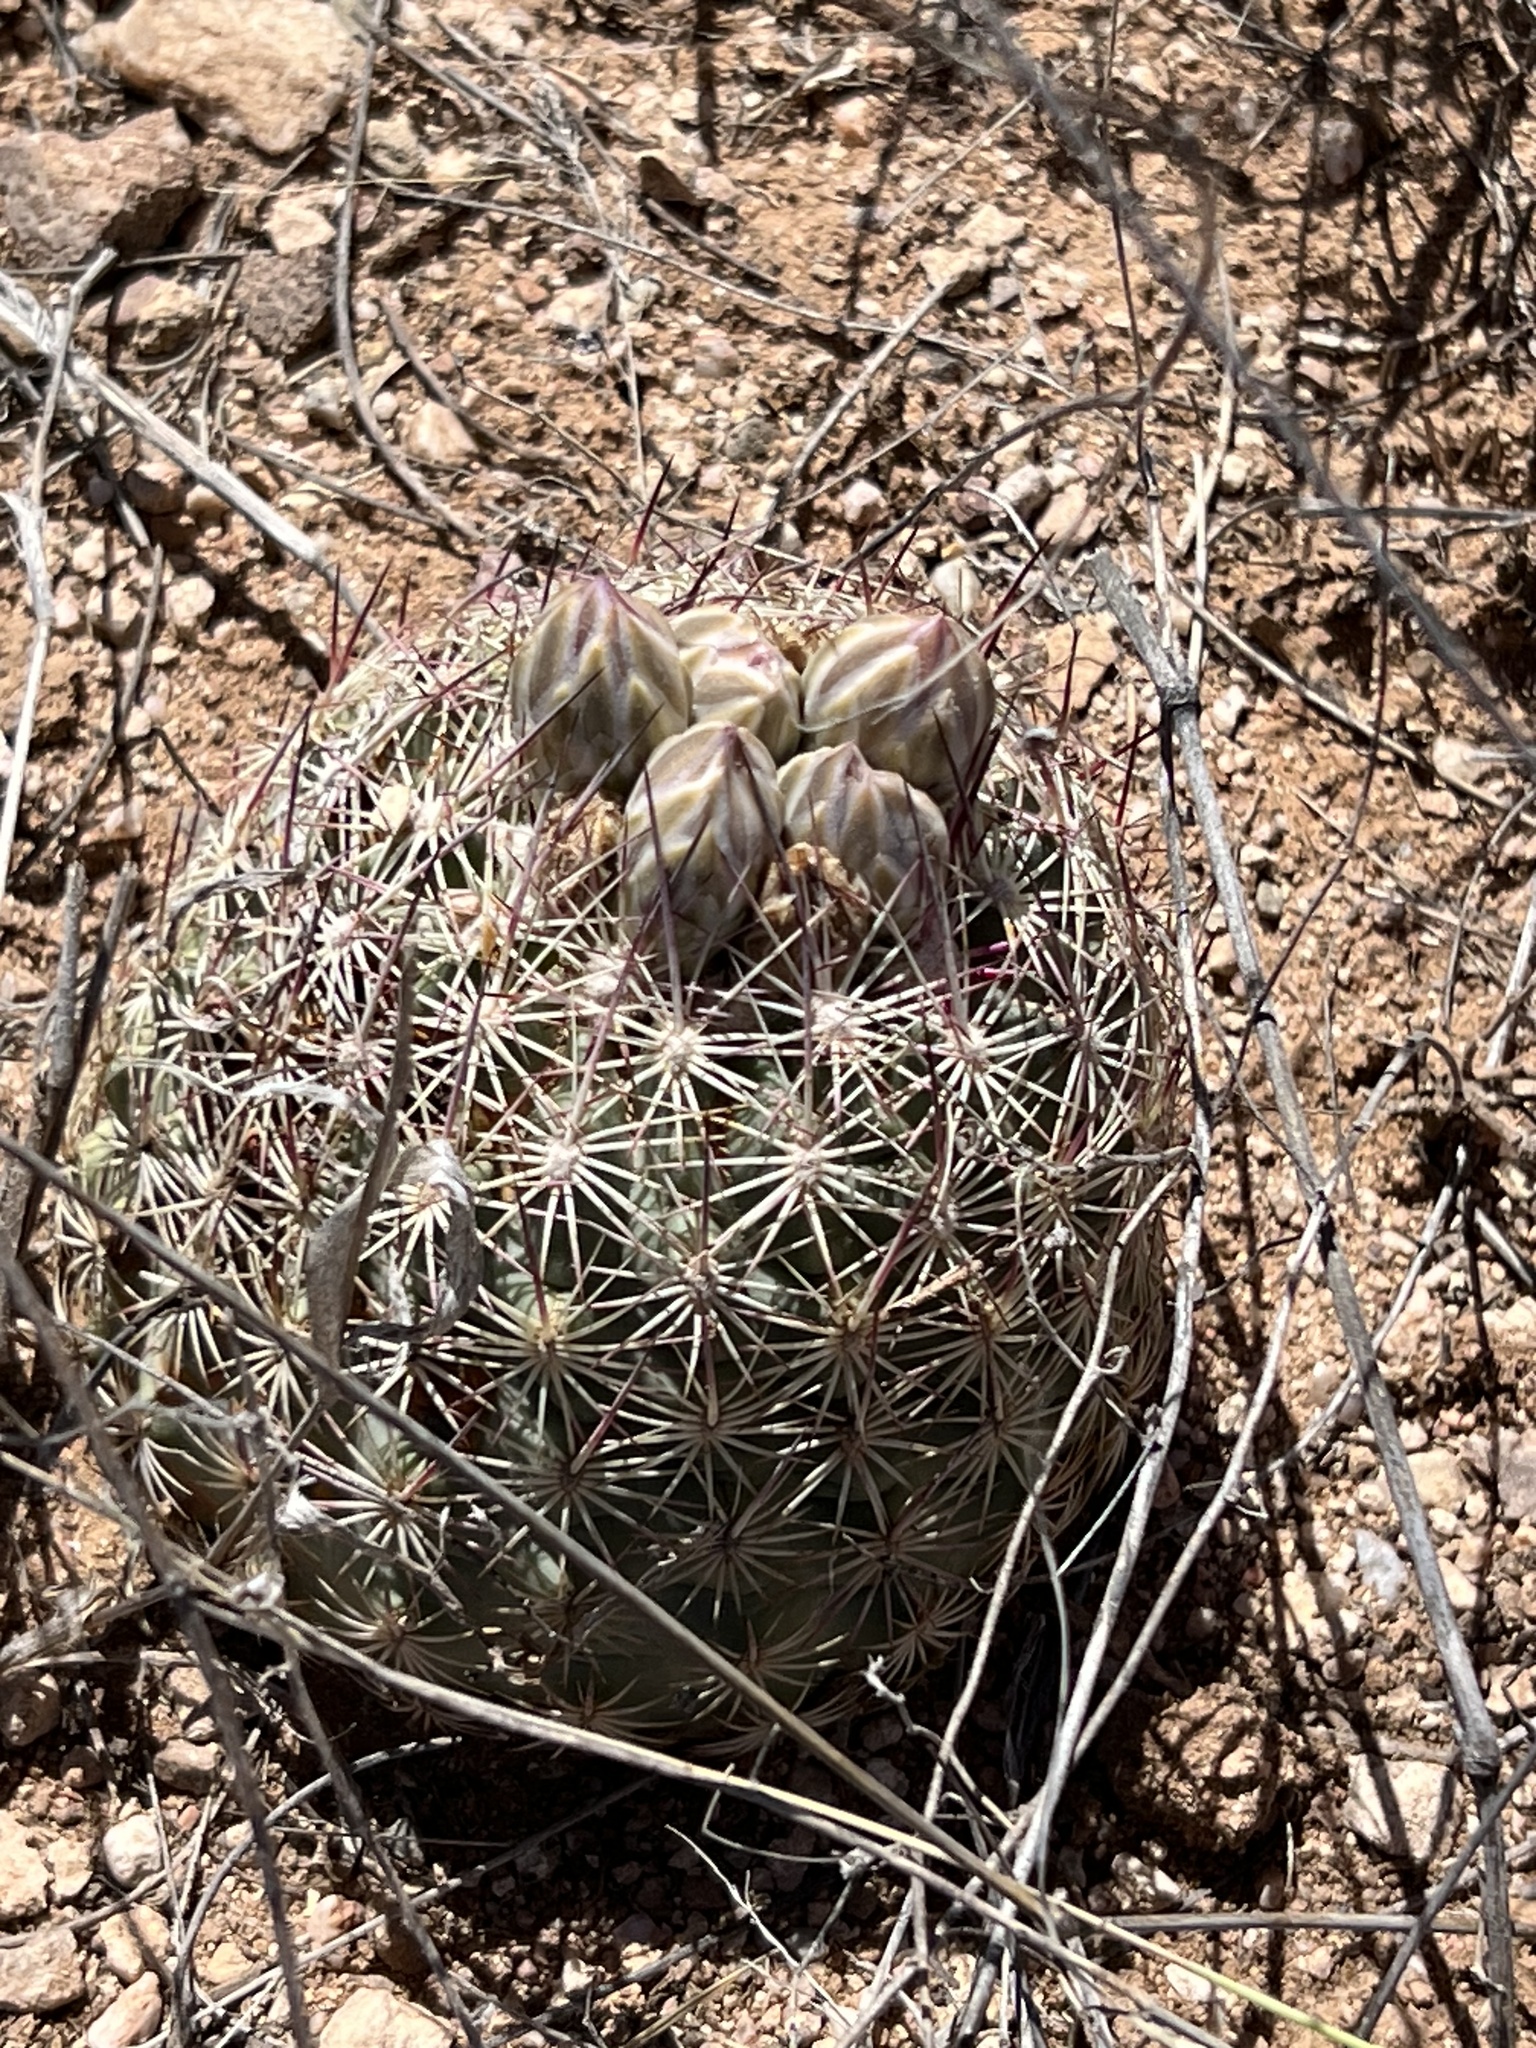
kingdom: Plantae
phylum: Tracheophyta
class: Magnoliopsida
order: Caryophyllales
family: Cactaceae
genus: Sclerocactus
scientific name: Sclerocactus johnsonii
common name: Eight-spine fishhook cactus
